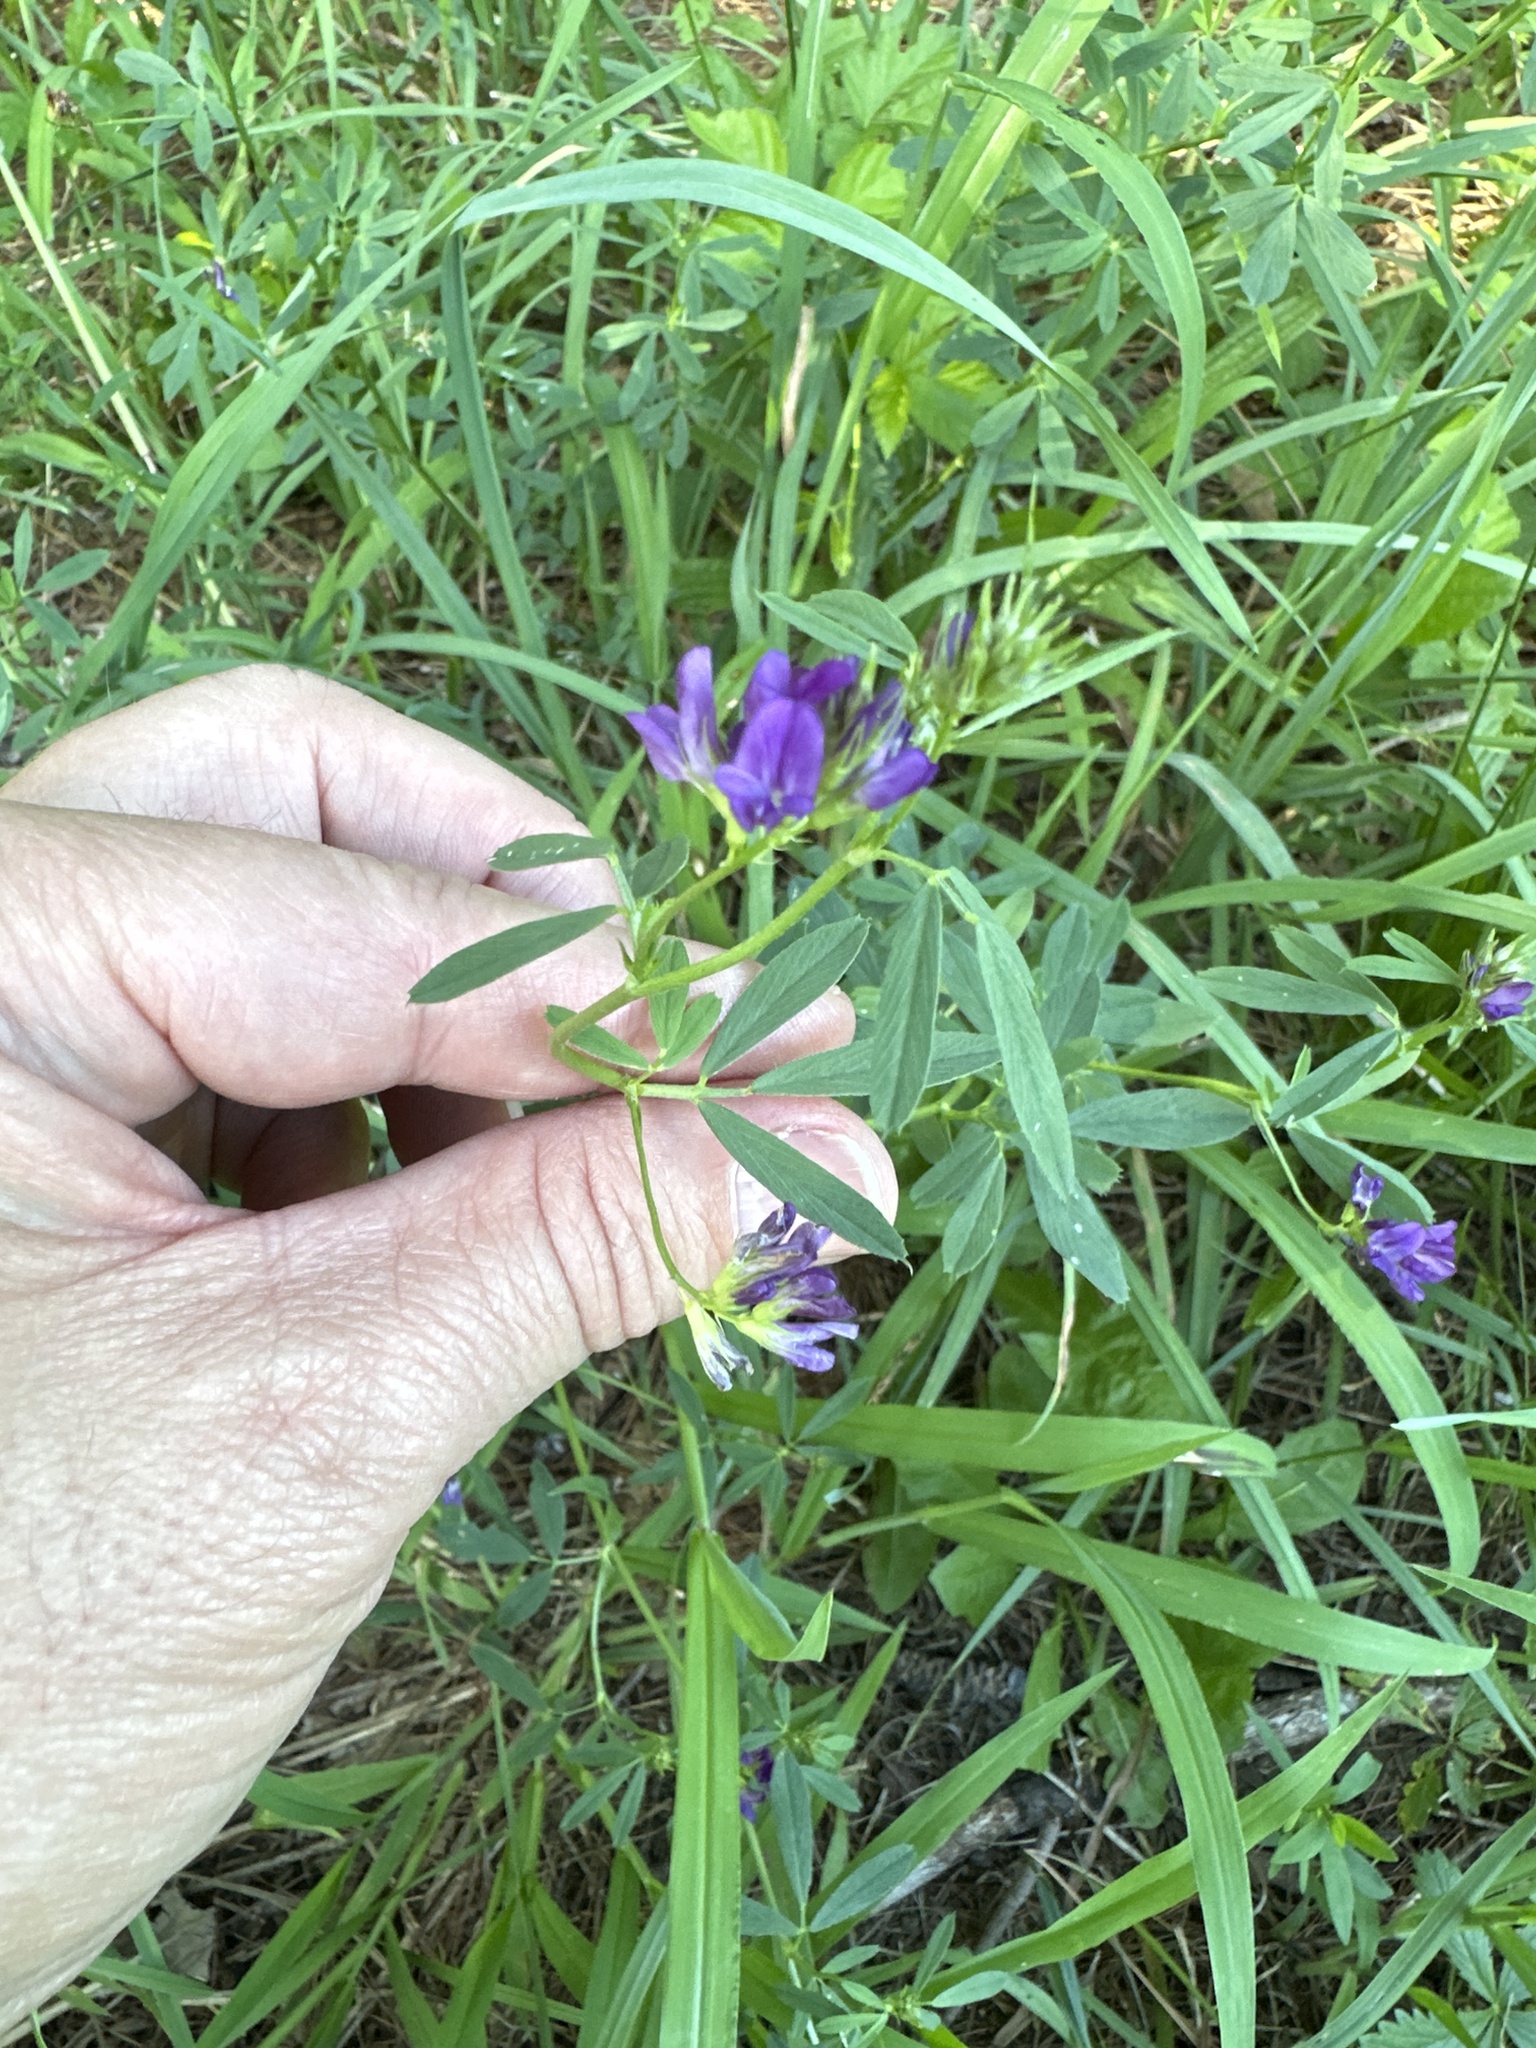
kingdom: Plantae
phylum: Tracheophyta
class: Magnoliopsida
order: Fabales
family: Fabaceae
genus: Medicago
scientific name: Medicago sativa
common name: Alfalfa
